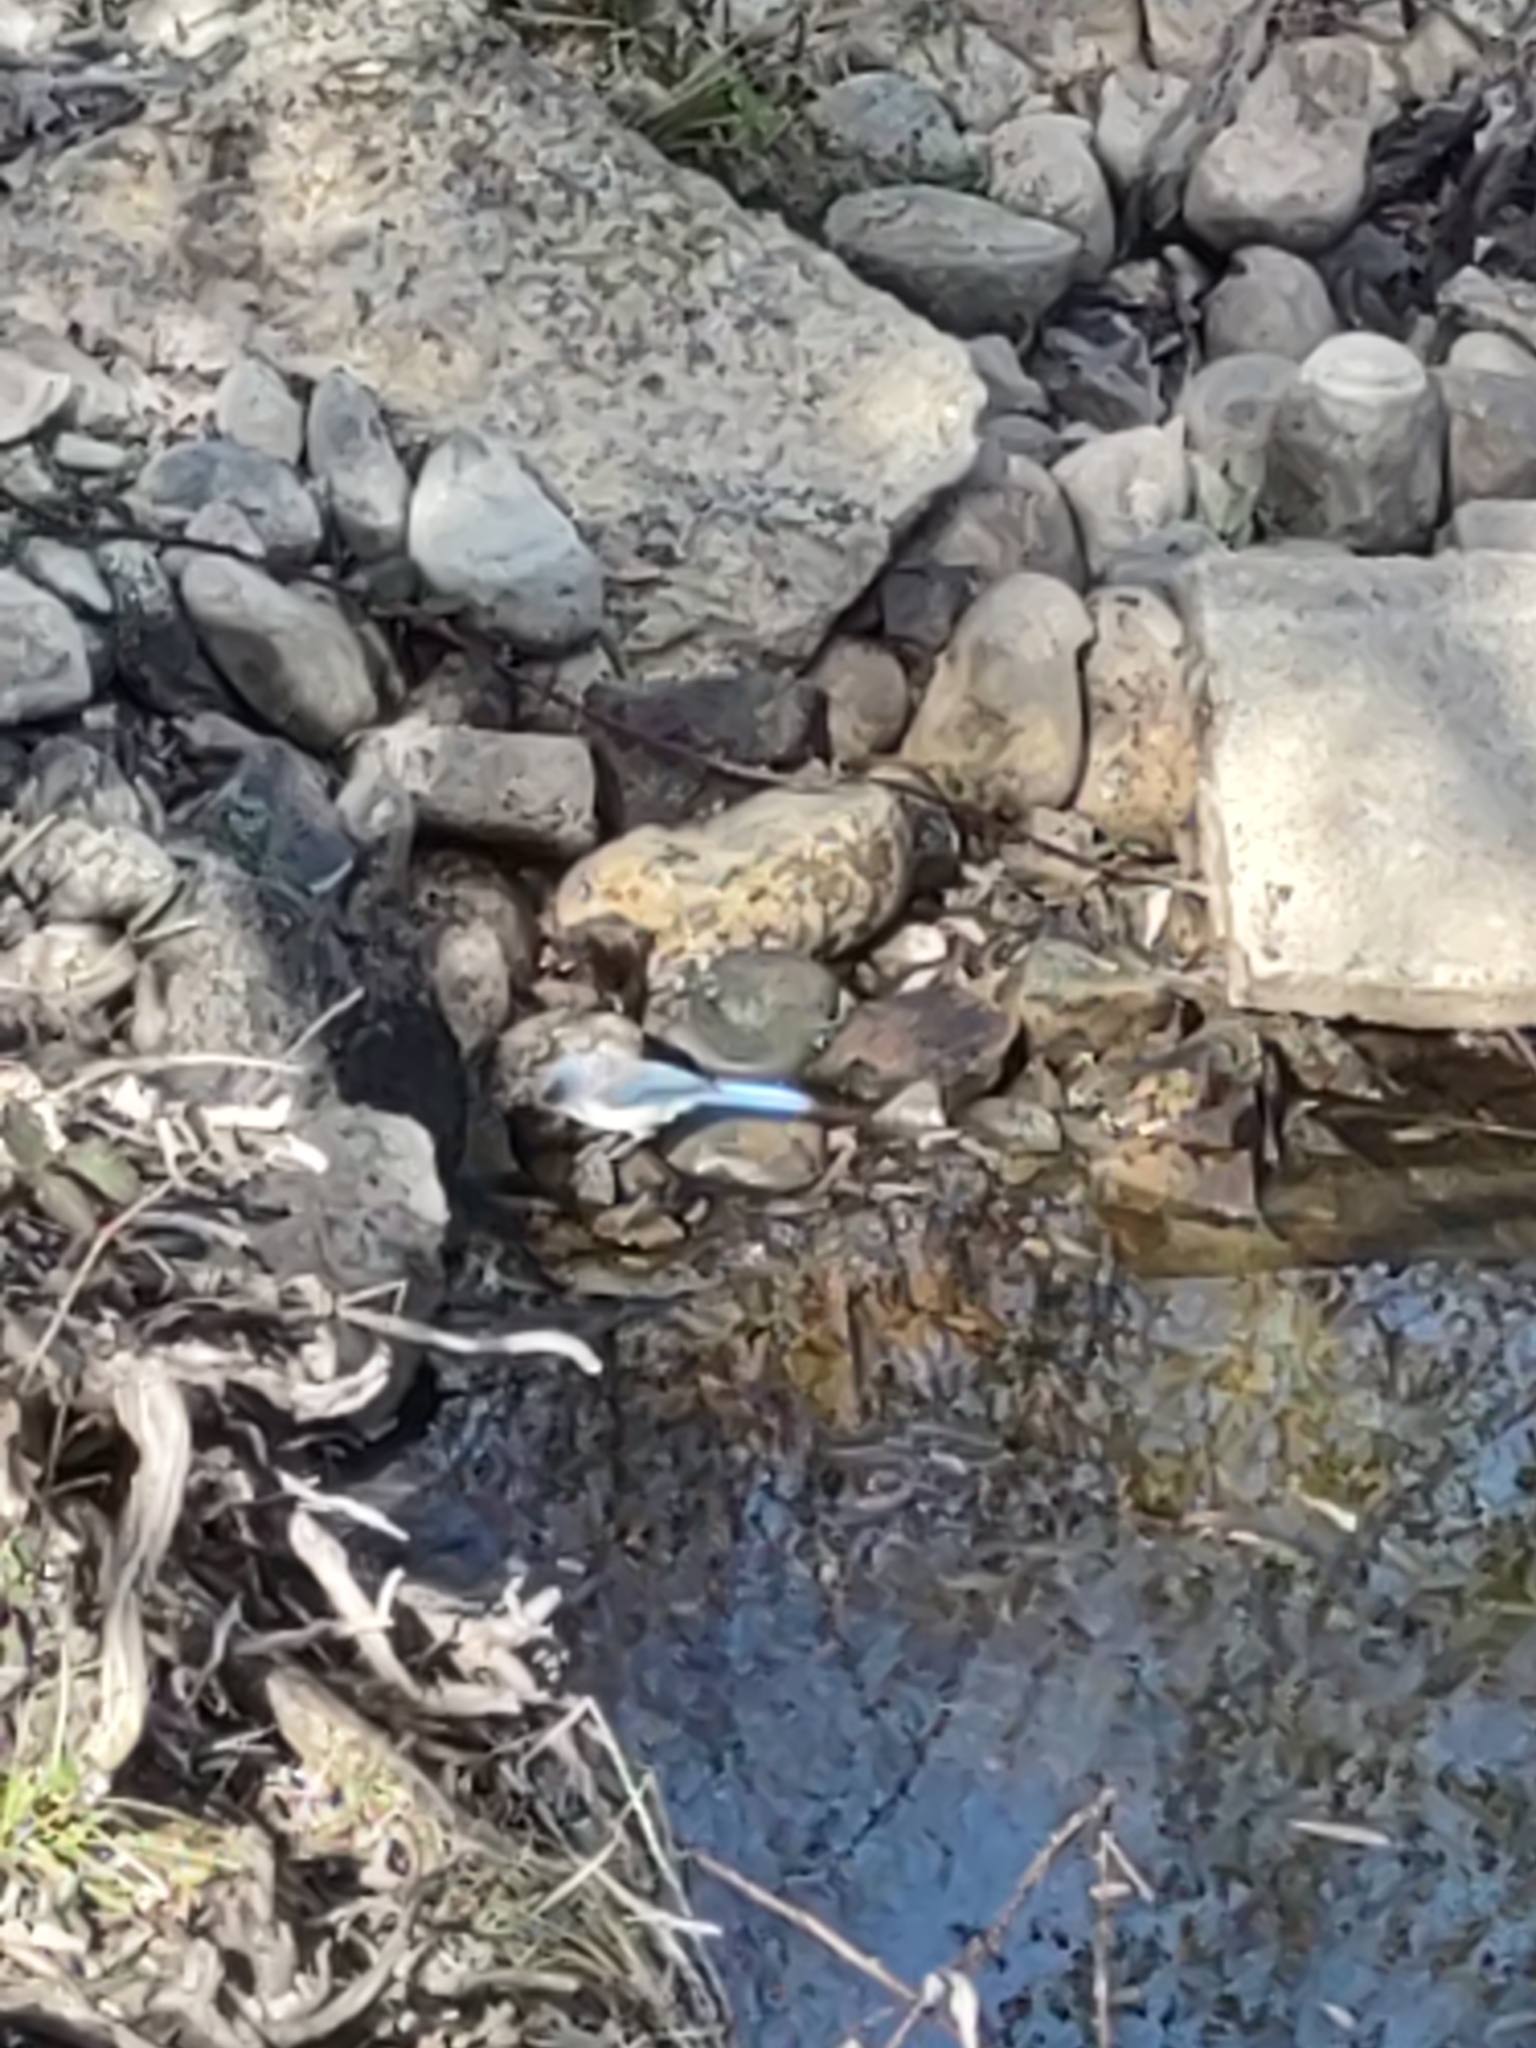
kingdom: Animalia
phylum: Chordata
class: Aves
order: Passeriformes
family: Corvidae
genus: Aphelocoma
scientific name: Aphelocoma californica
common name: California scrub-jay
